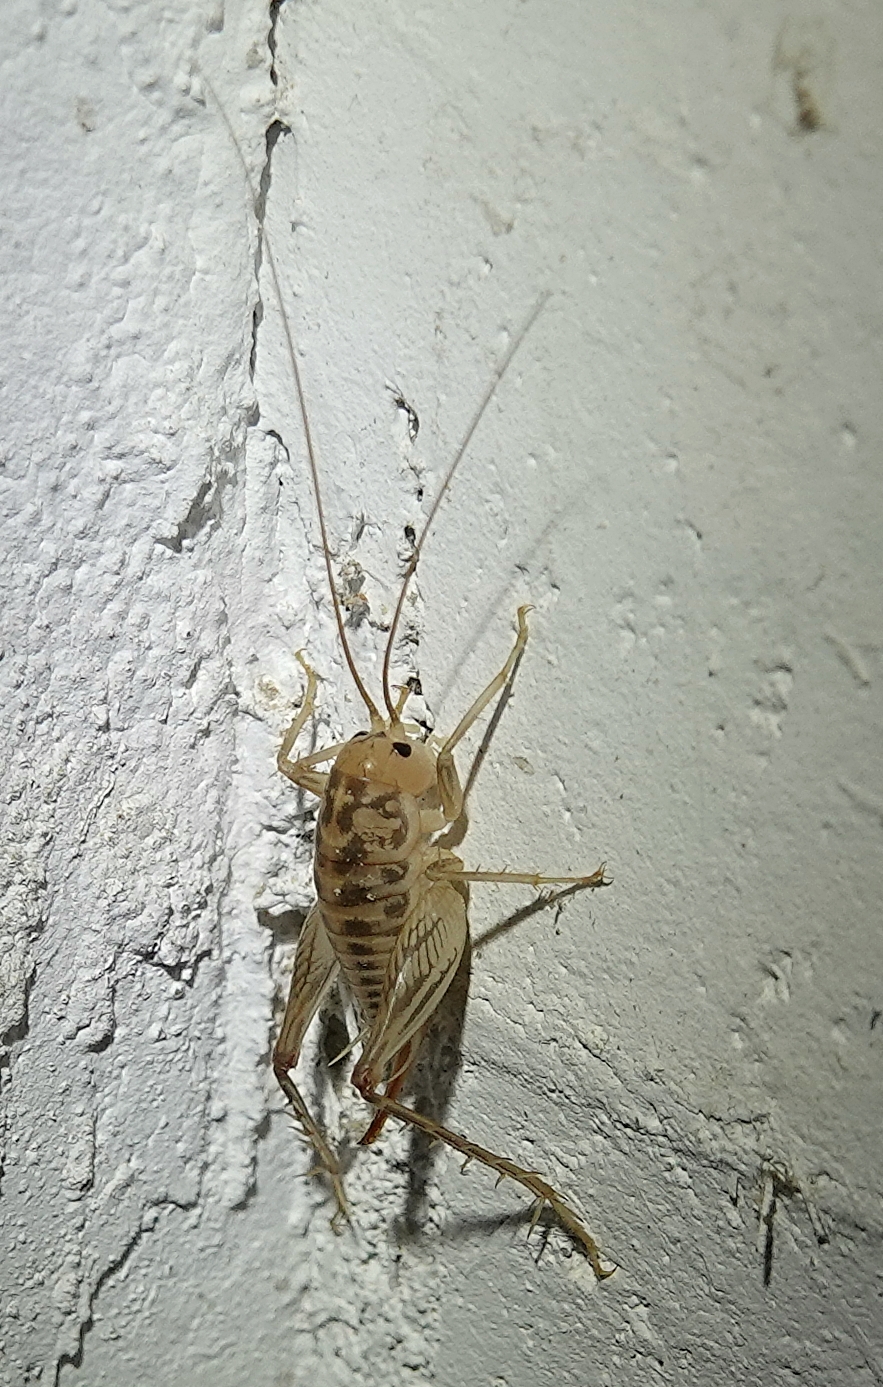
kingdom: Animalia
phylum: Arthropoda
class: Insecta
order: Orthoptera
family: Rhaphidophoridae
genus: Ceuthophilus
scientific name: Ceuthophilus pallidus
